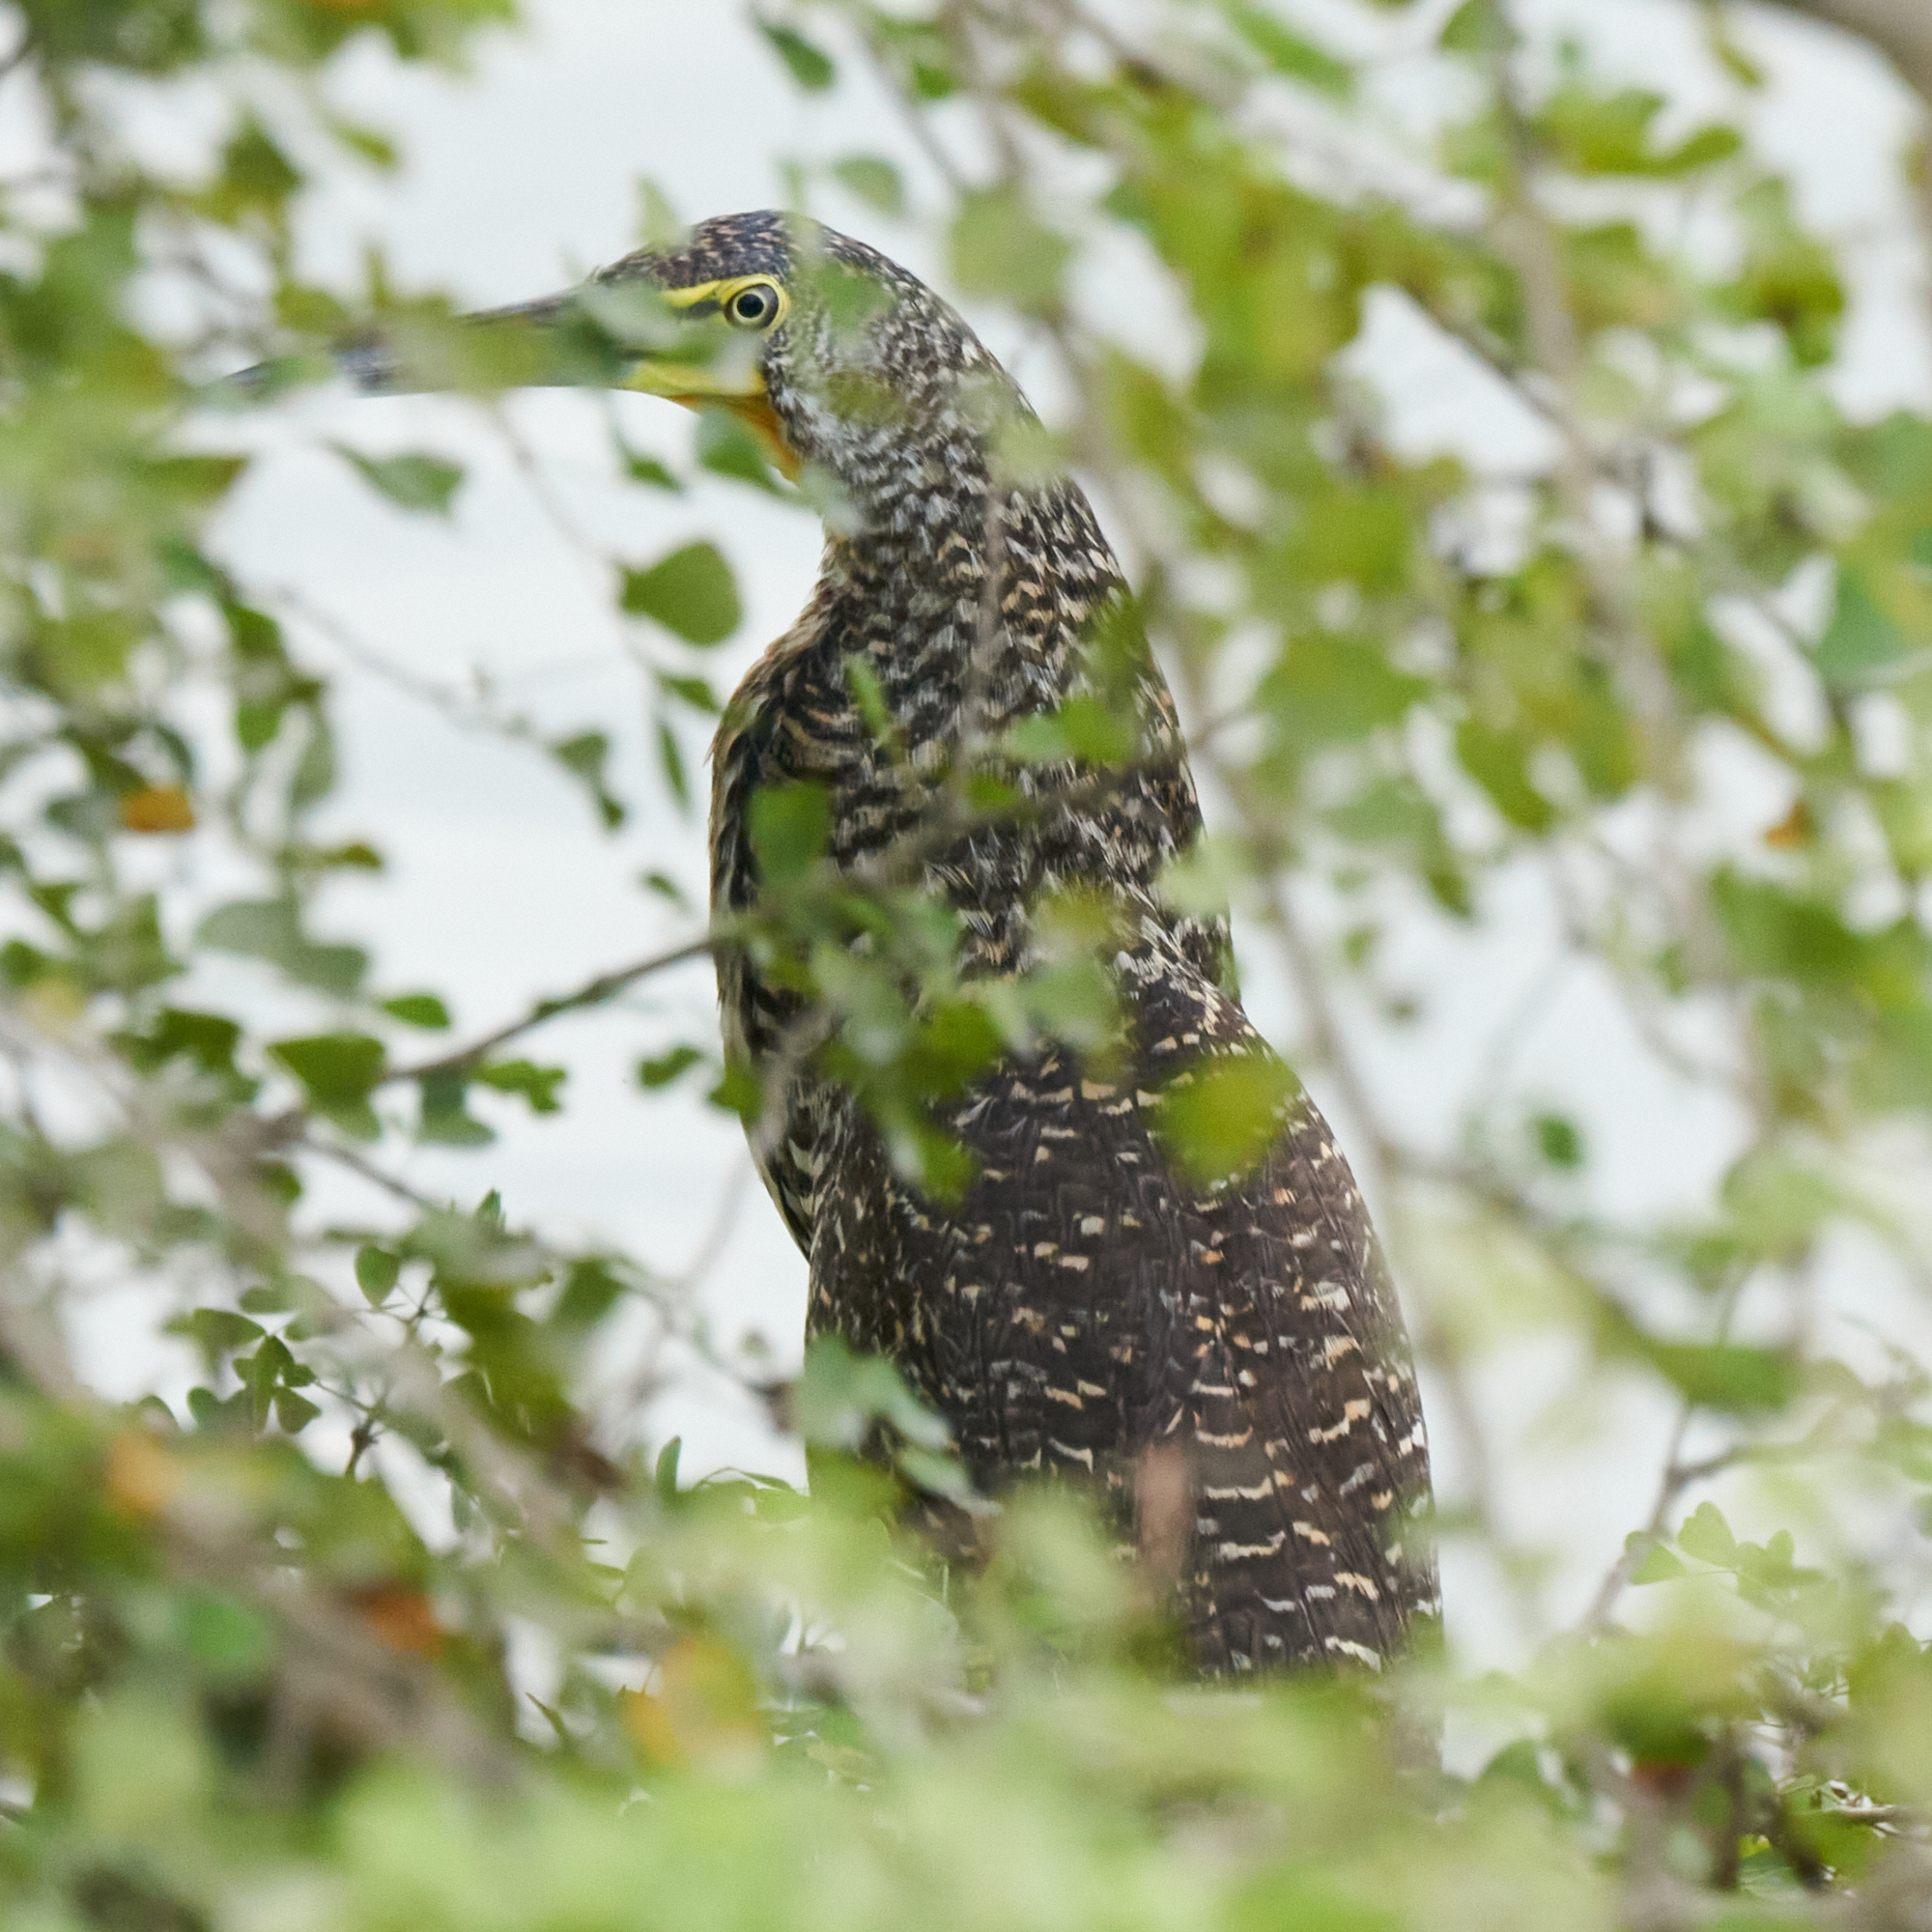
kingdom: Animalia
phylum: Chordata
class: Aves
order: Pelecaniformes
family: Ardeidae
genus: Tigrisoma
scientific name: Tigrisoma mexicanum
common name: Bare-throated tiger-heron
